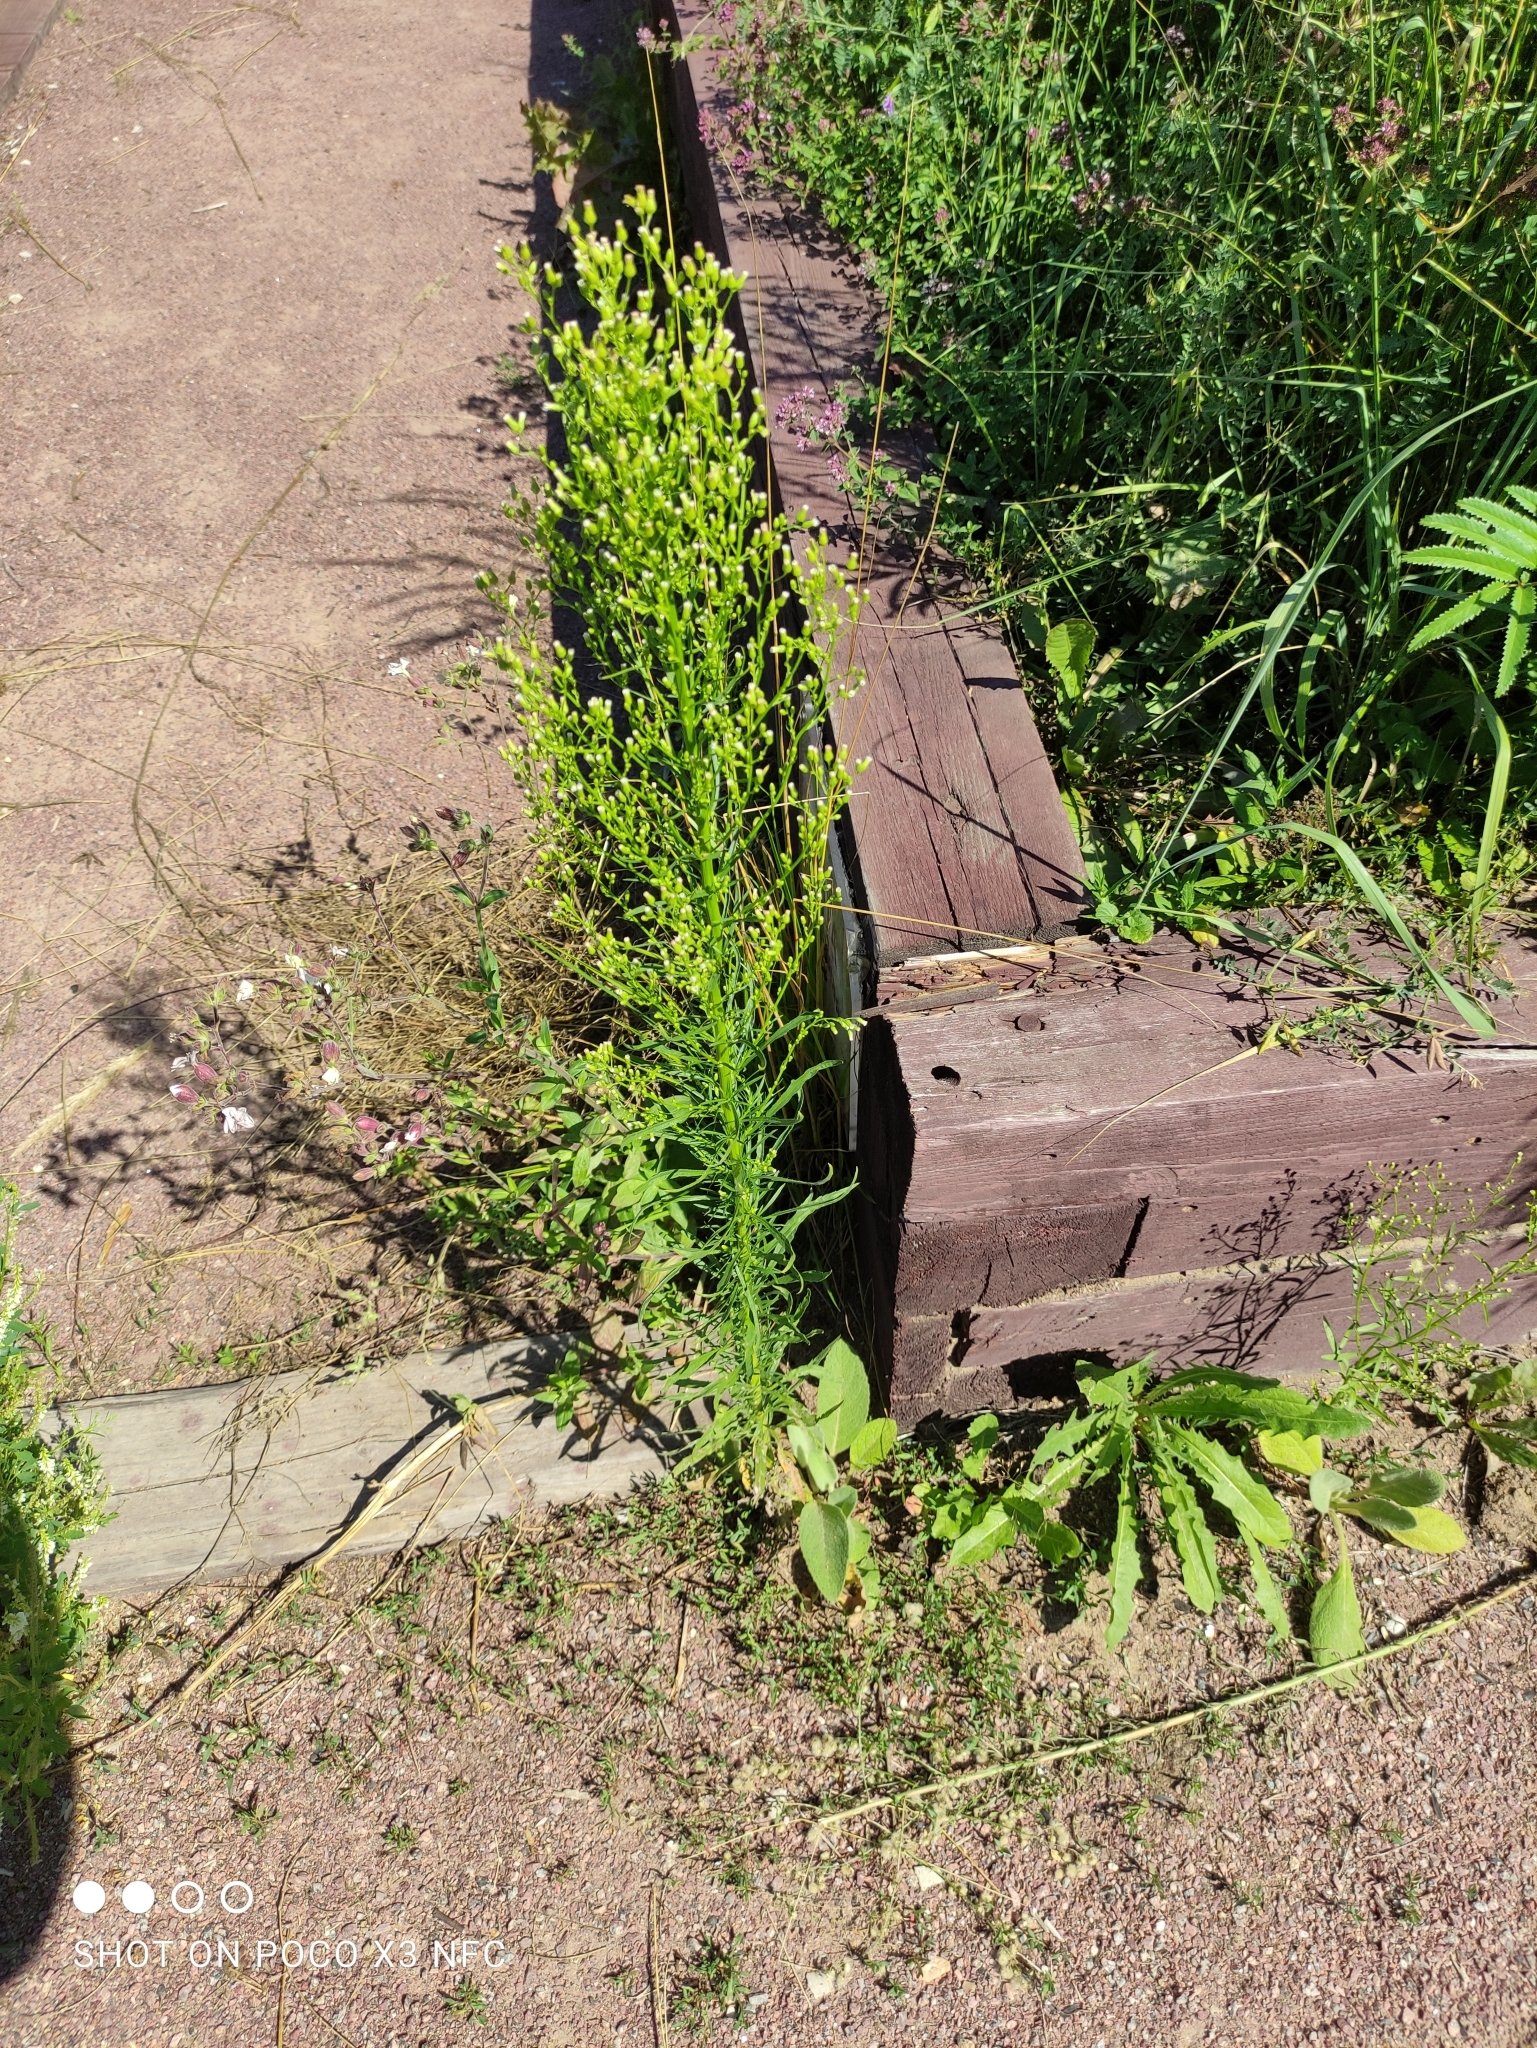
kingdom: Plantae
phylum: Tracheophyta
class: Magnoliopsida
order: Asterales
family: Asteraceae
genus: Erigeron
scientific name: Erigeron canadensis
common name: Canadian fleabane
